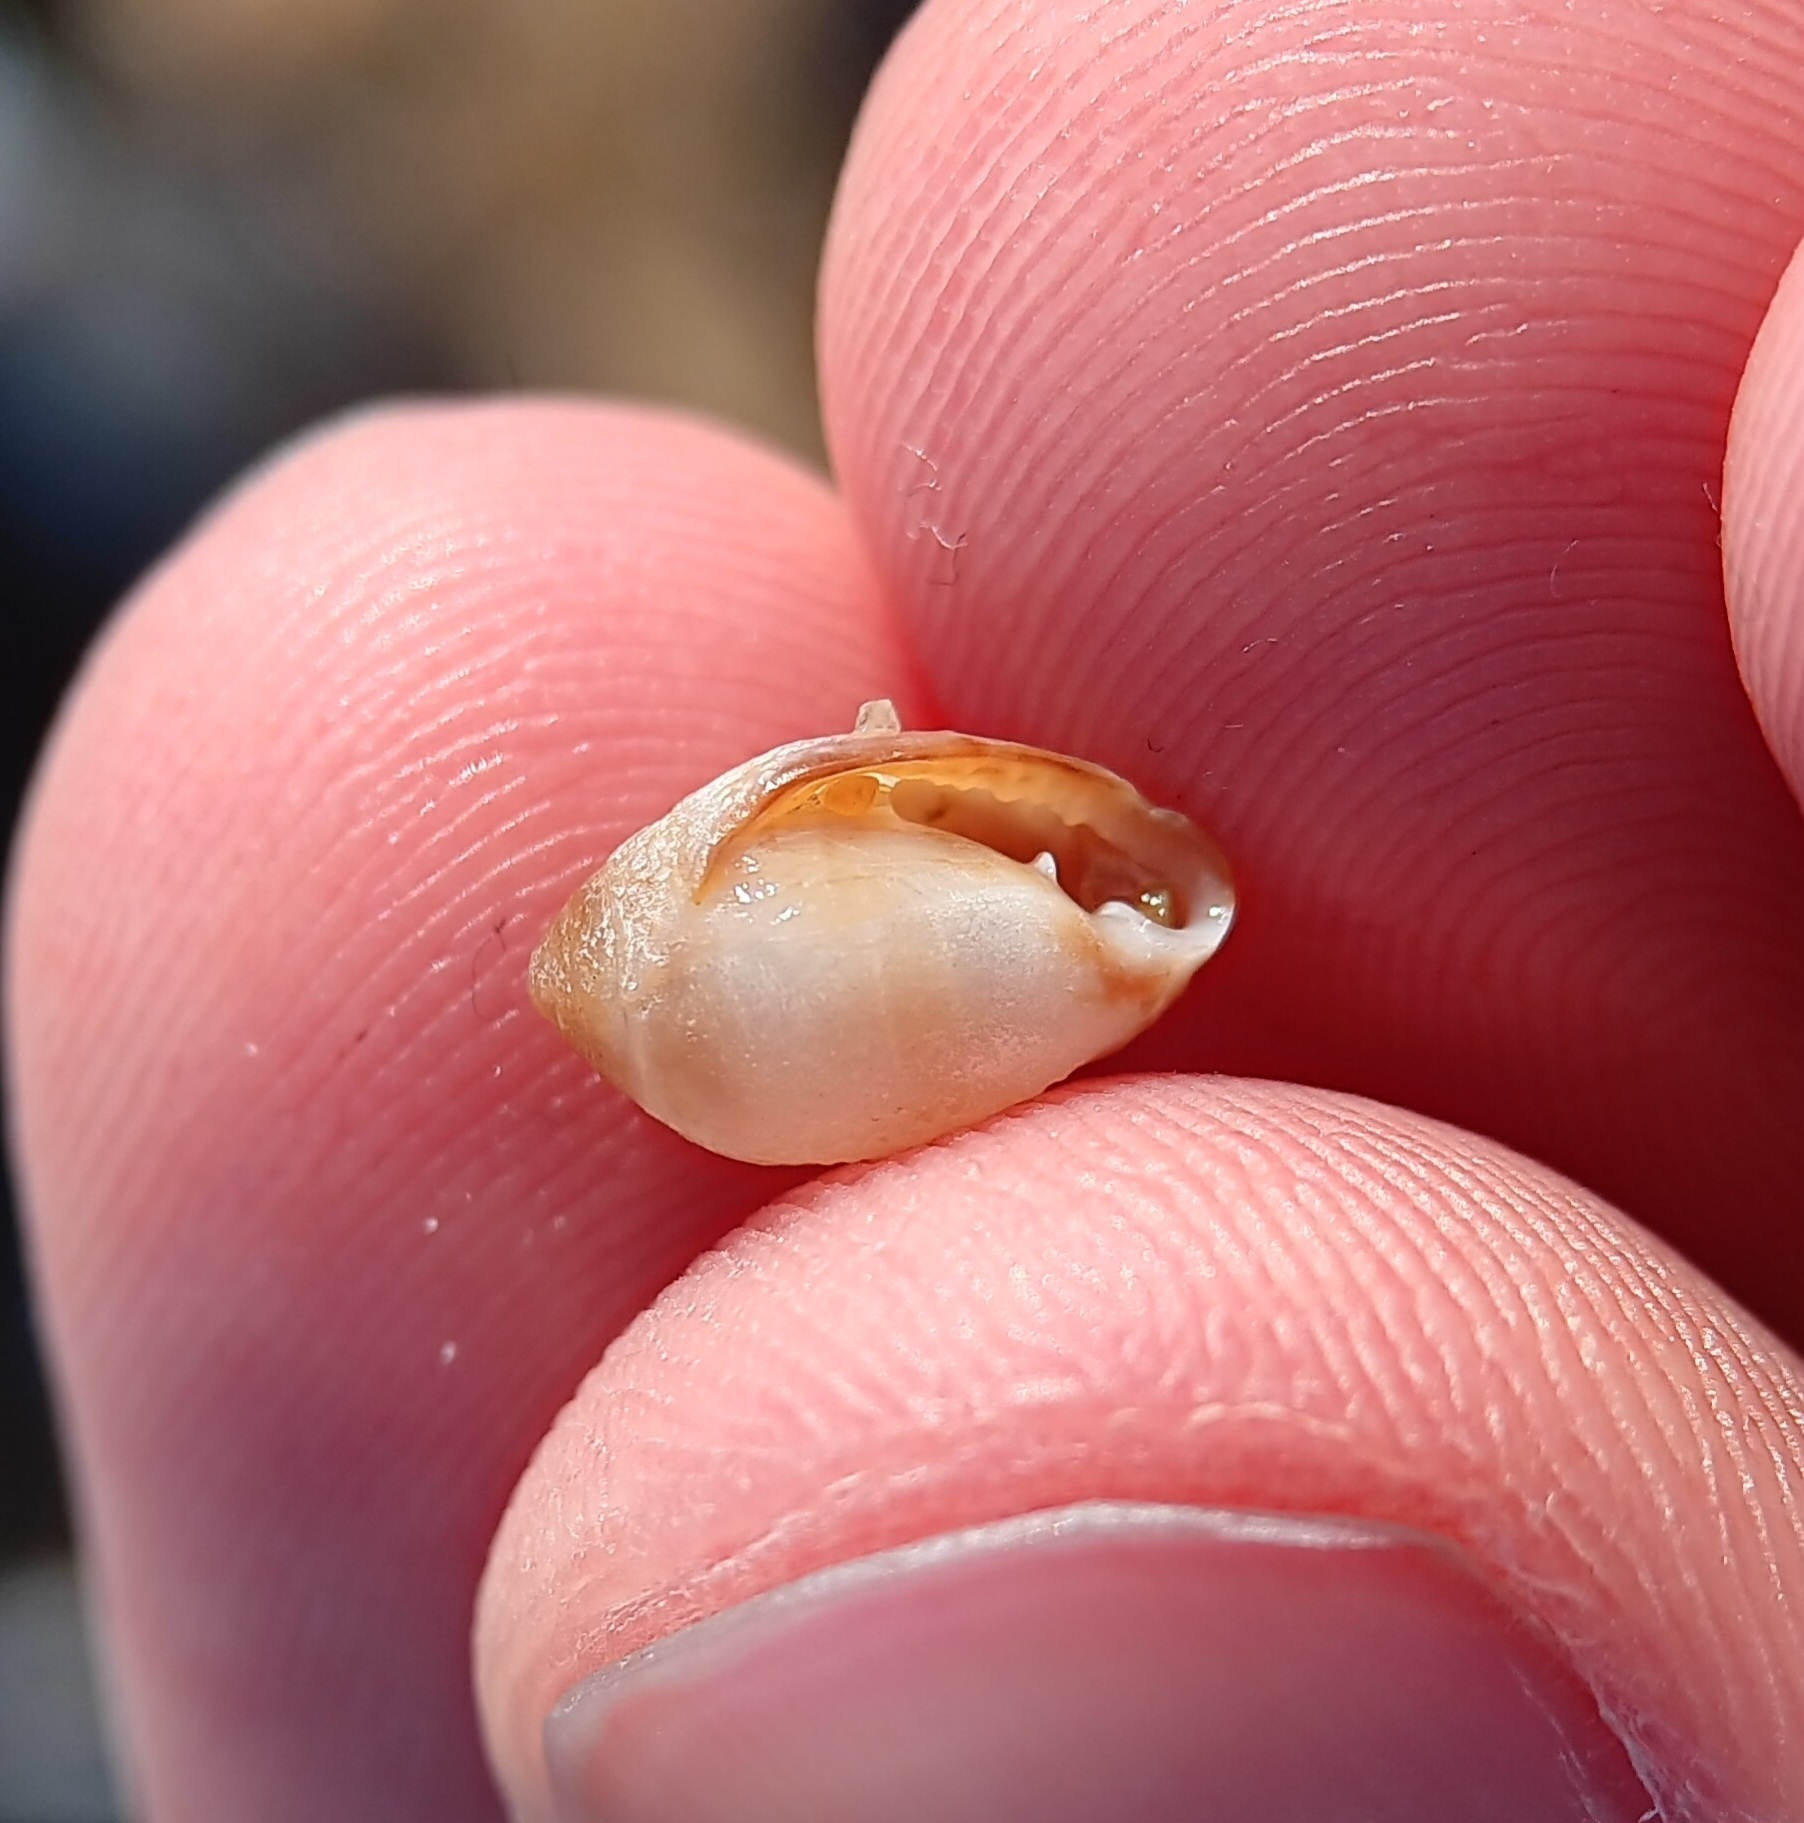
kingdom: Animalia
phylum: Mollusca
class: Gastropoda
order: Ellobiida
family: Ellobiidae
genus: Melampus
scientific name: Melampus bidentatus
